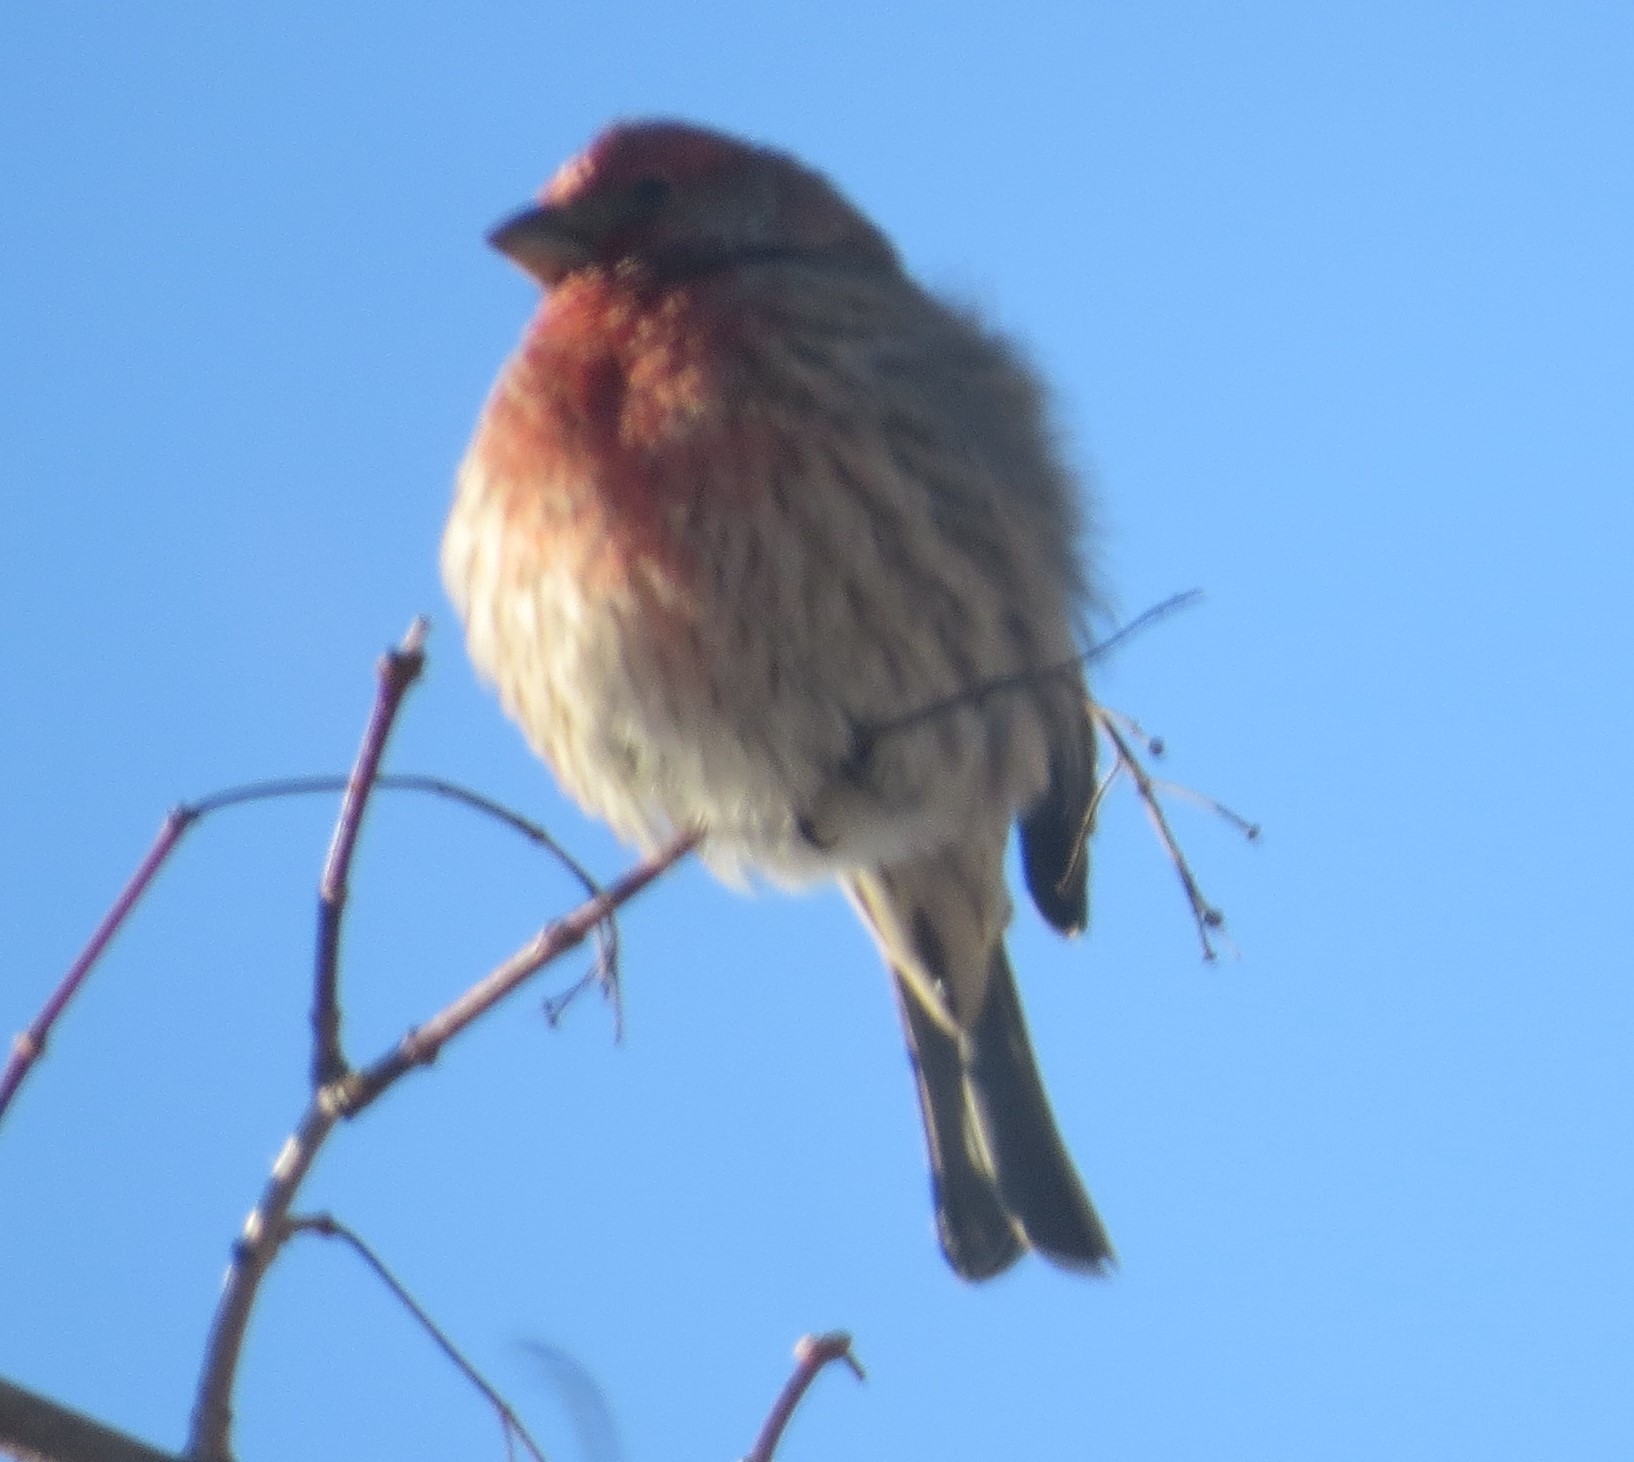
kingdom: Animalia
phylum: Chordata
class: Aves
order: Passeriformes
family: Fringillidae
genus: Haemorhous
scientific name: Haemorhous mexicanus
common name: House finch
